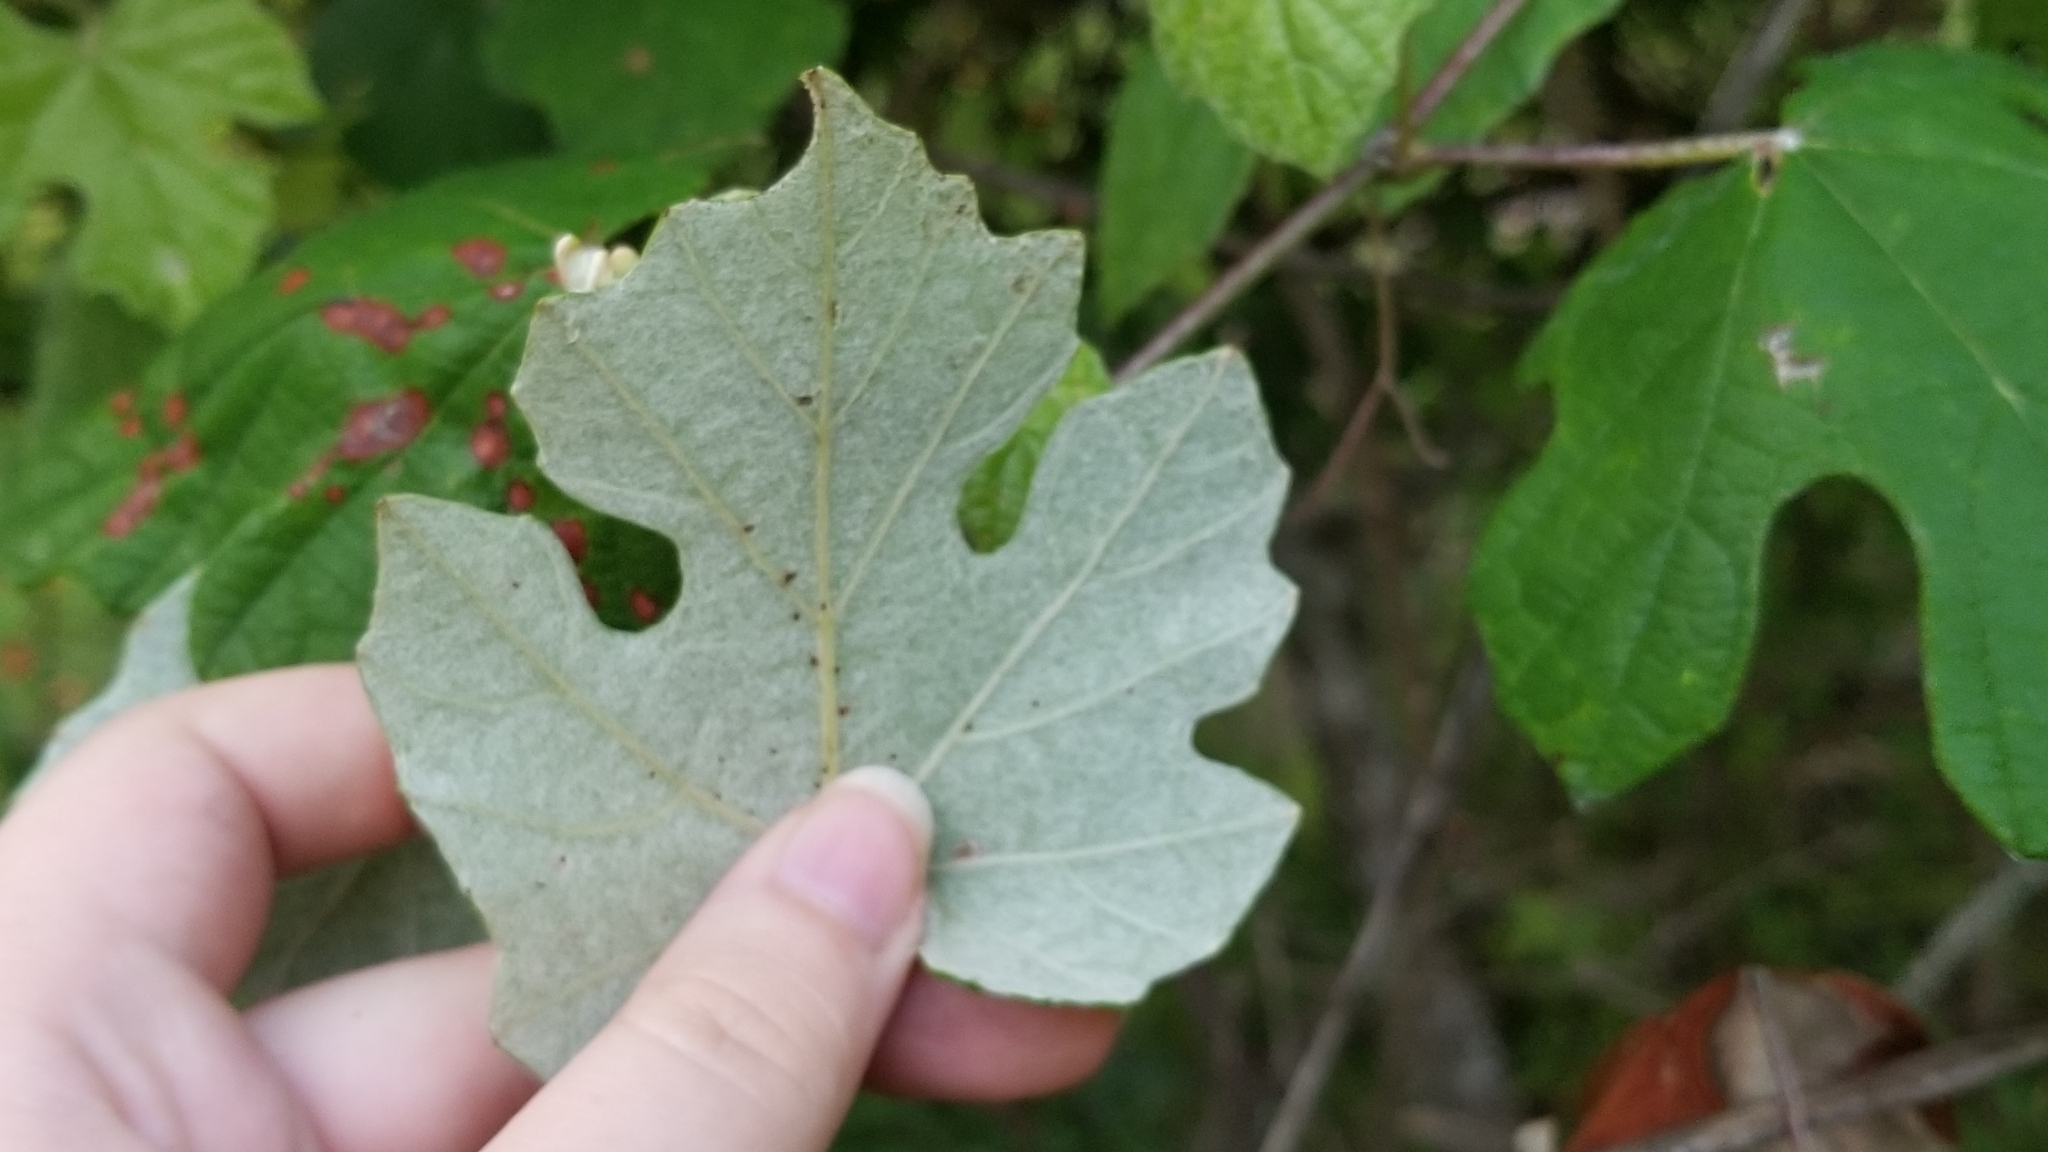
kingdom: Plantae
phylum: Tracheophyta
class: Magnoliopsida
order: Vitales
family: Vitaceae
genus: Vitis
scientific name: Vitis mustangensis
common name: Mustang grape
